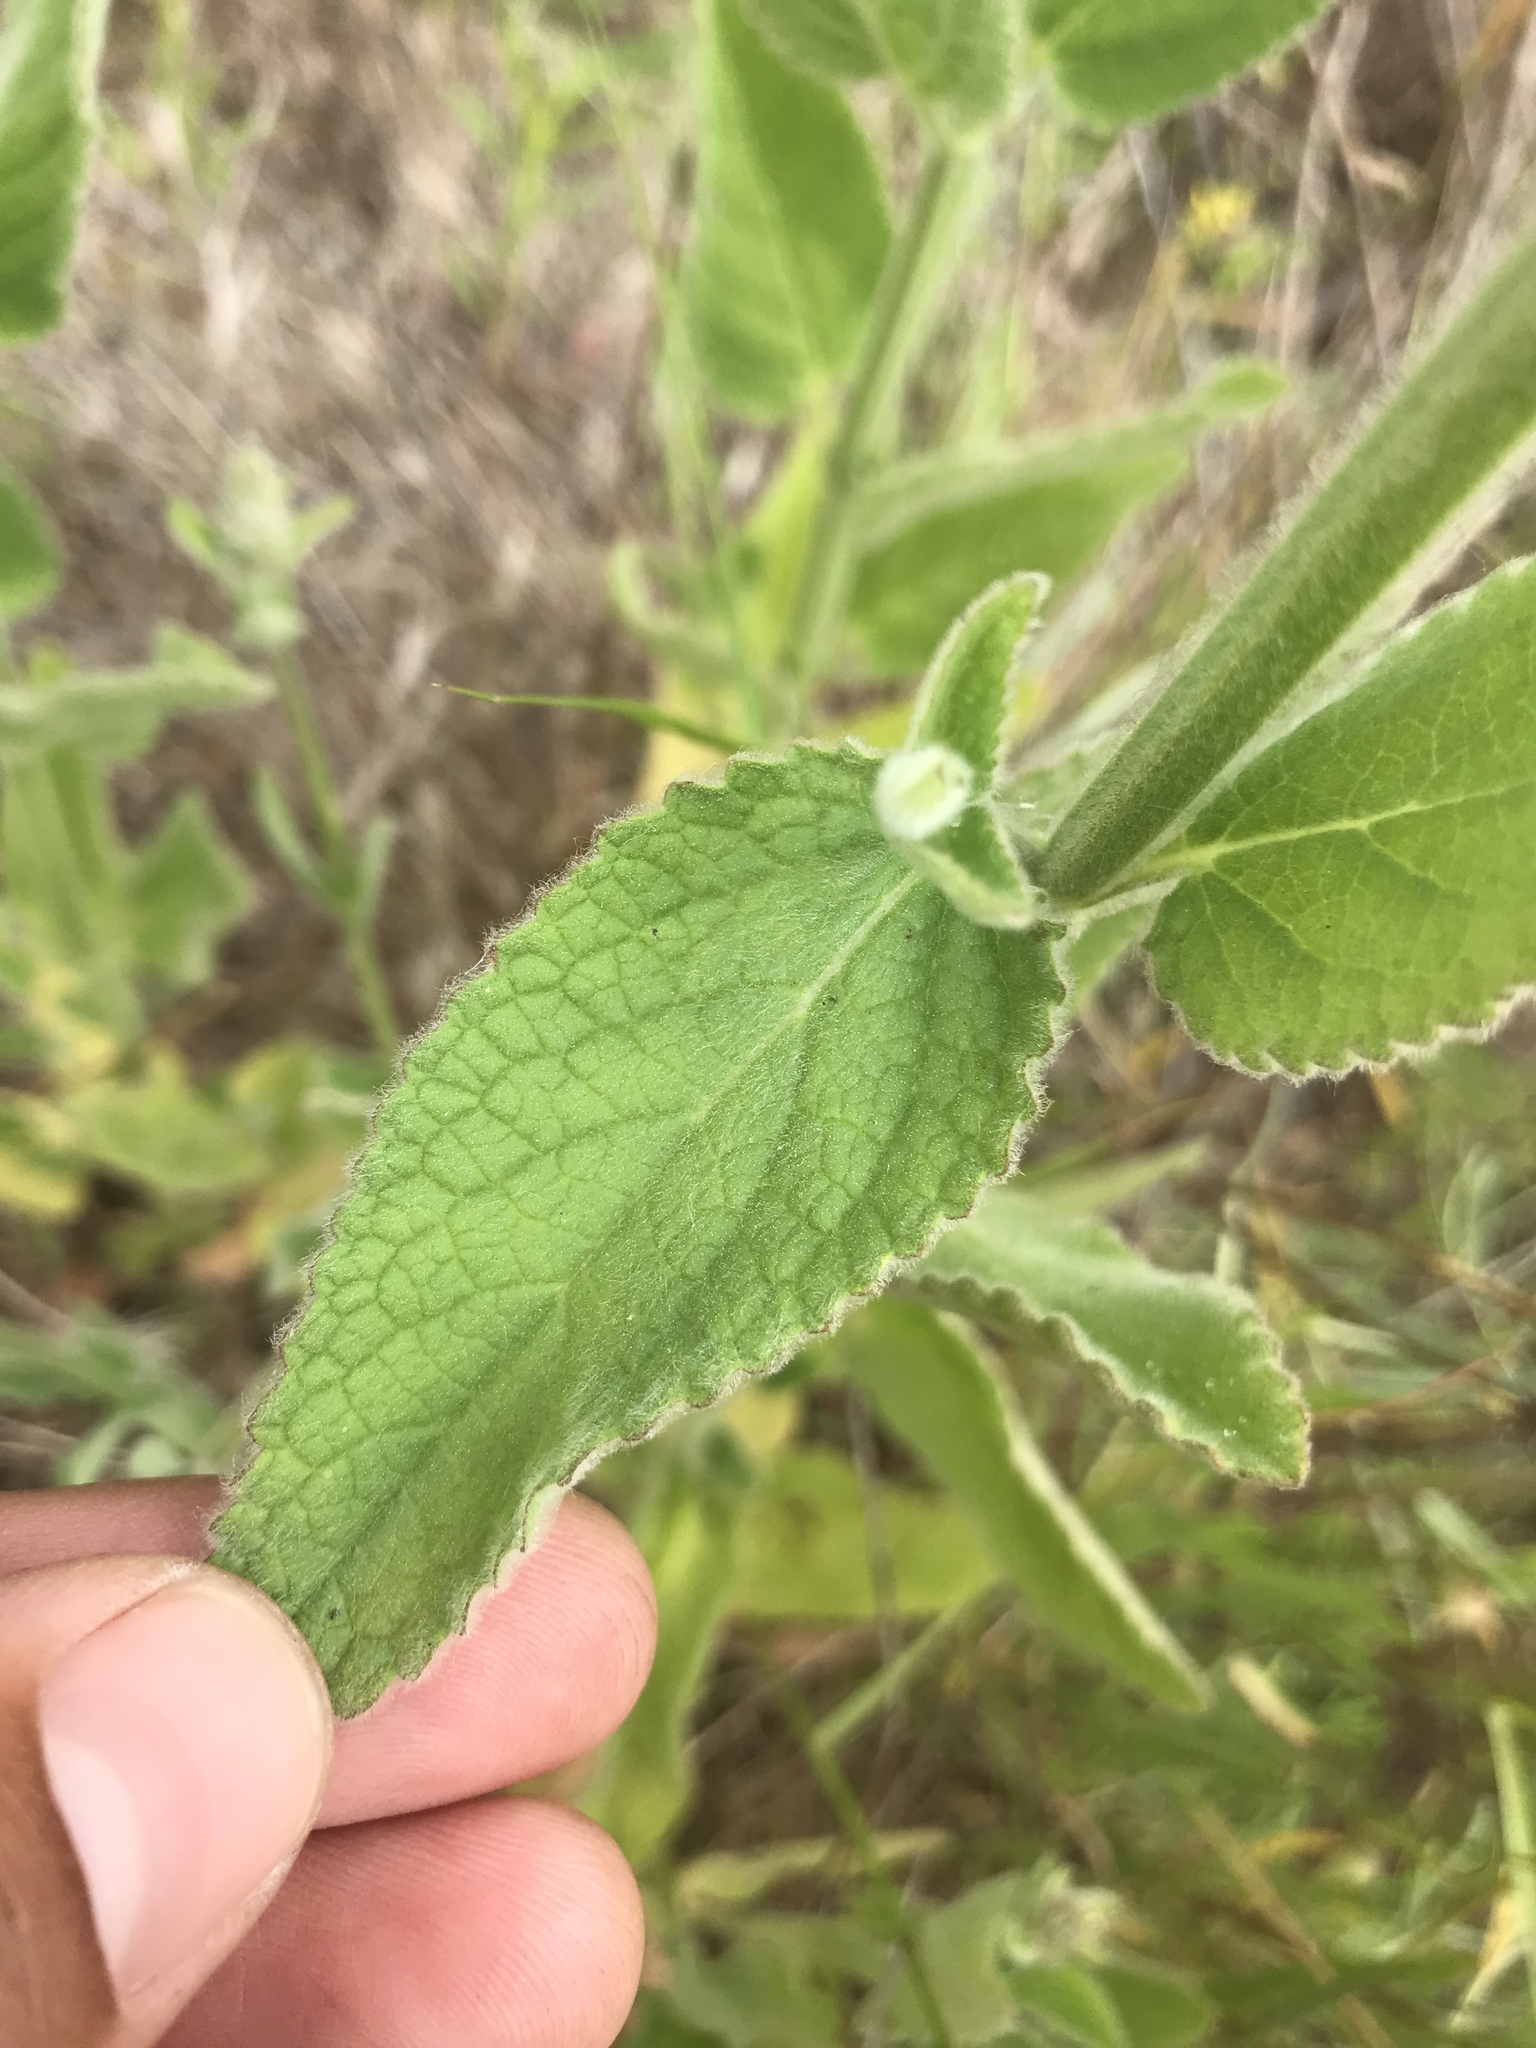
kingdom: Plantae
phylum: Tracheophyta
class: Magnoliopsida
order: Lamiales
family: Lamiaceae
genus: Stachys
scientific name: Stachys albens
